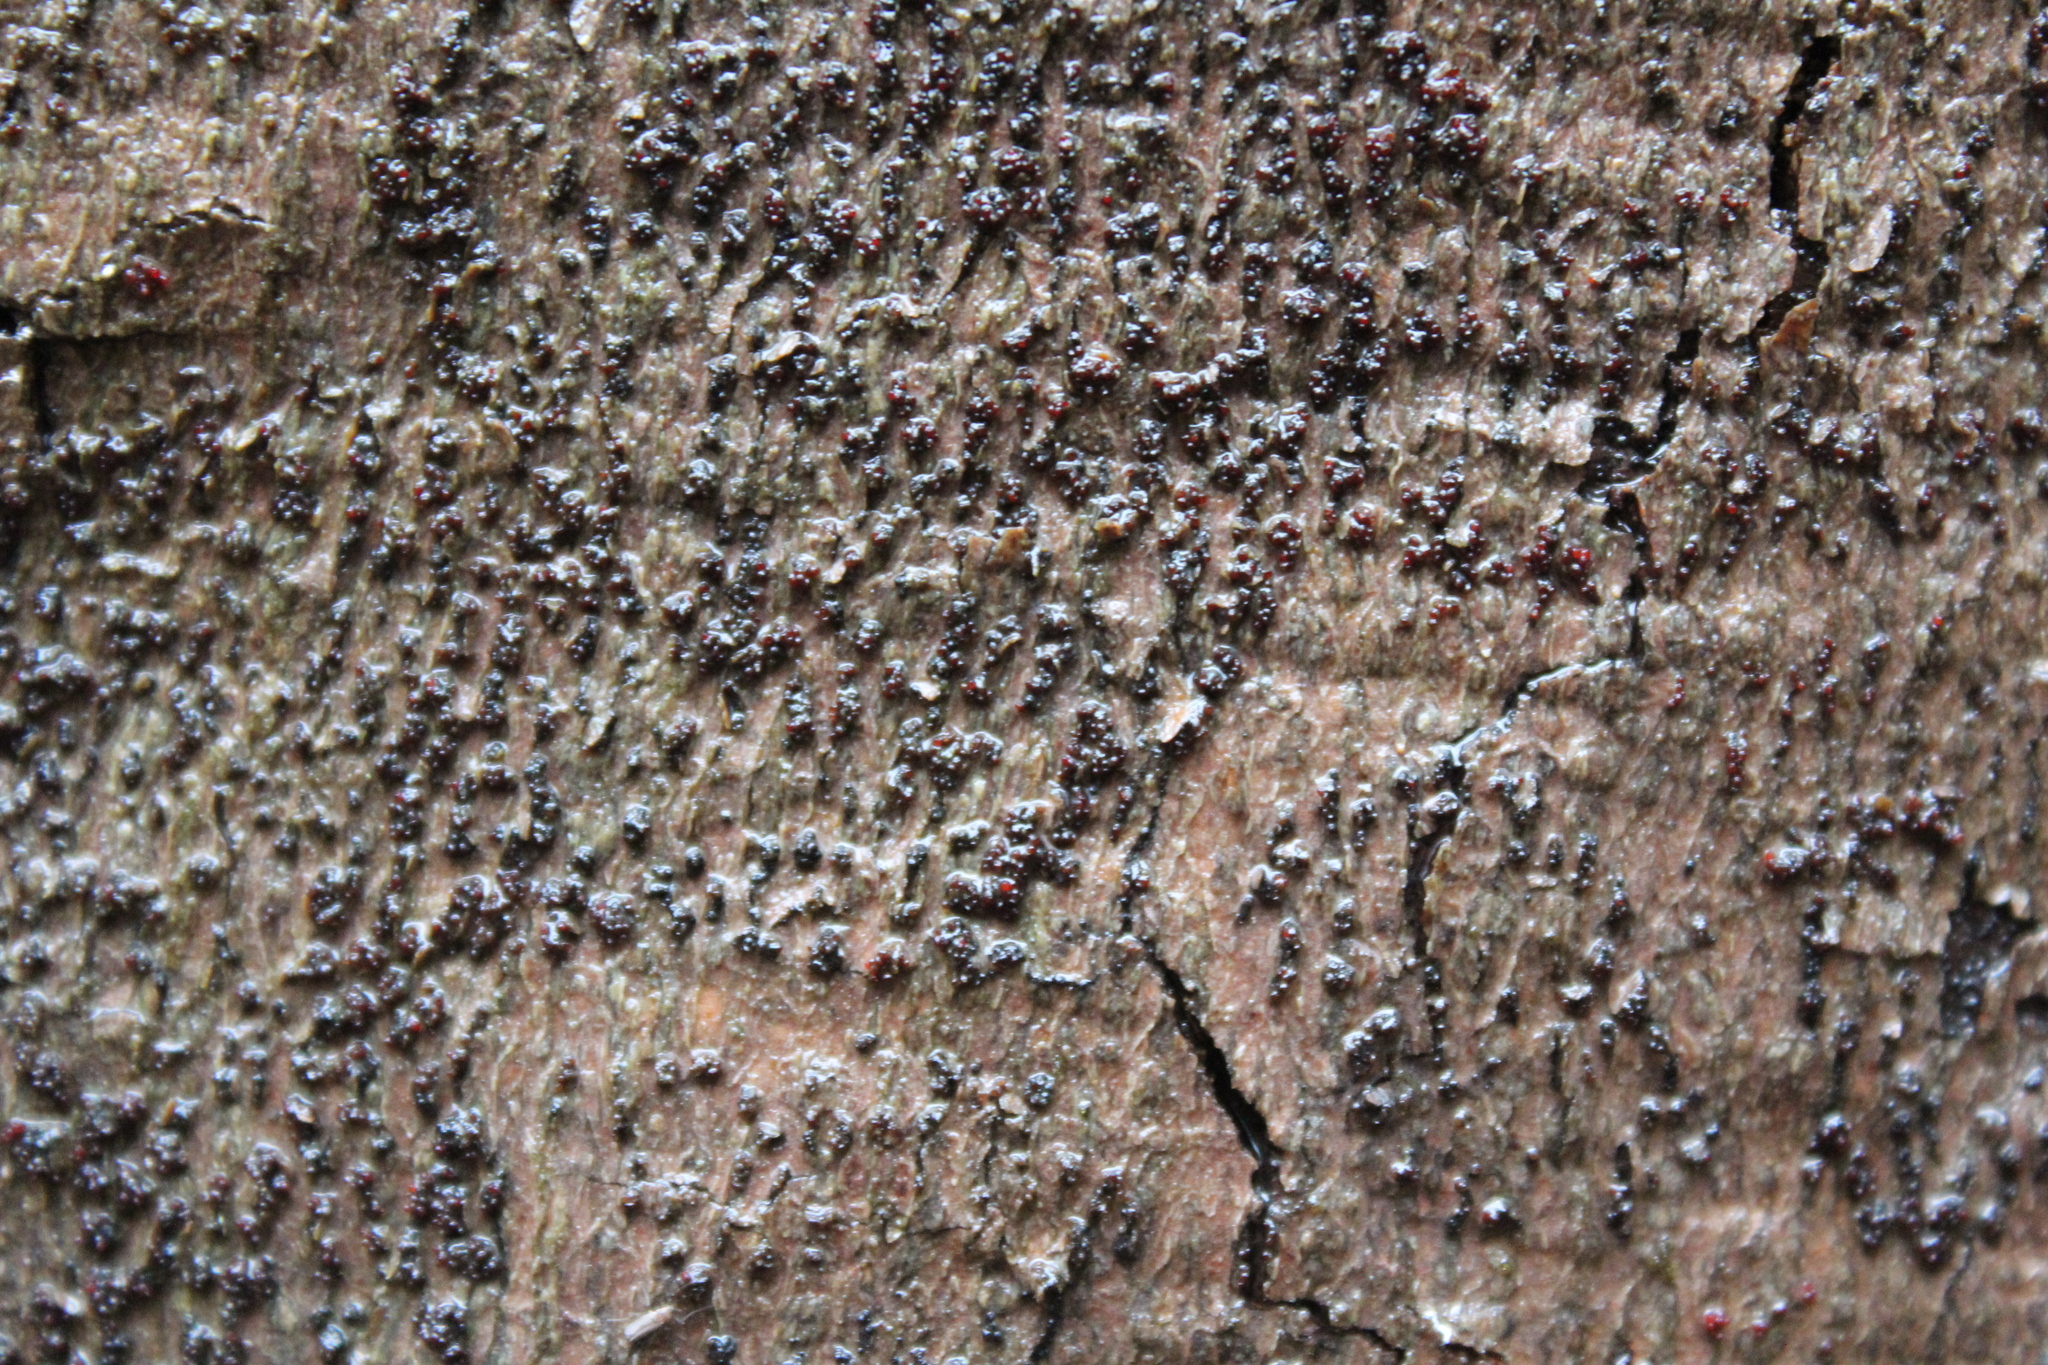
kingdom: Fungi
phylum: Ascomycota
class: Sordariomycetes
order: Hypocreales
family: Nectriaceae
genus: Neonectria
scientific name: Neonectria faginata
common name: Beech bark canker
